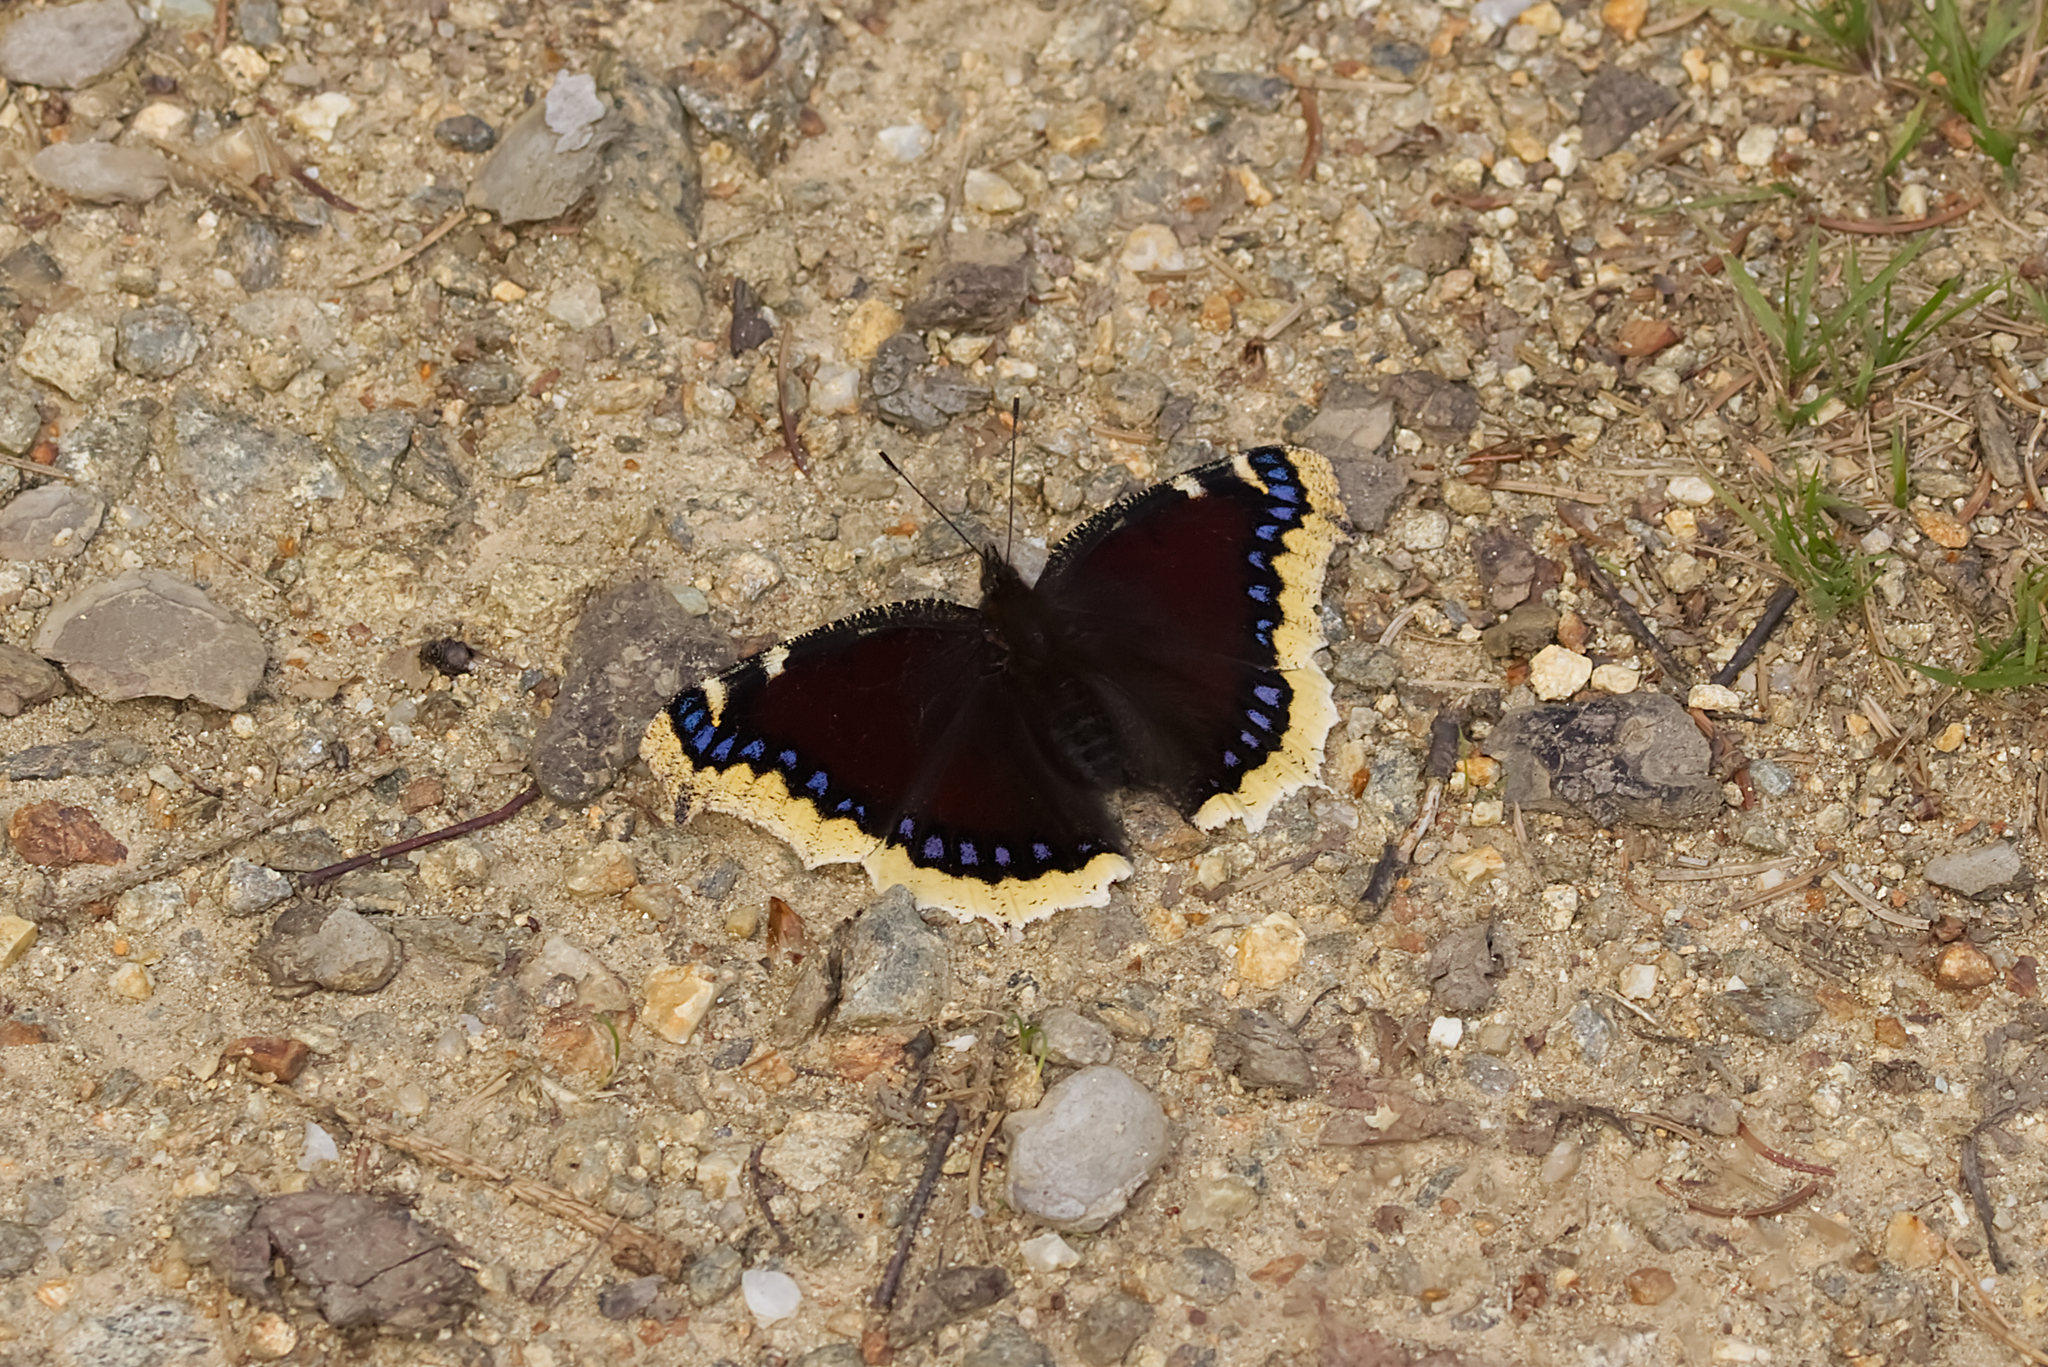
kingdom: Animalia
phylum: Arthropoda
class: Insecta
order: Lepidoptera
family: Nymphalidae
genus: Nymphalis
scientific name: Nymphalis antiopa
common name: Camberwell beauty
